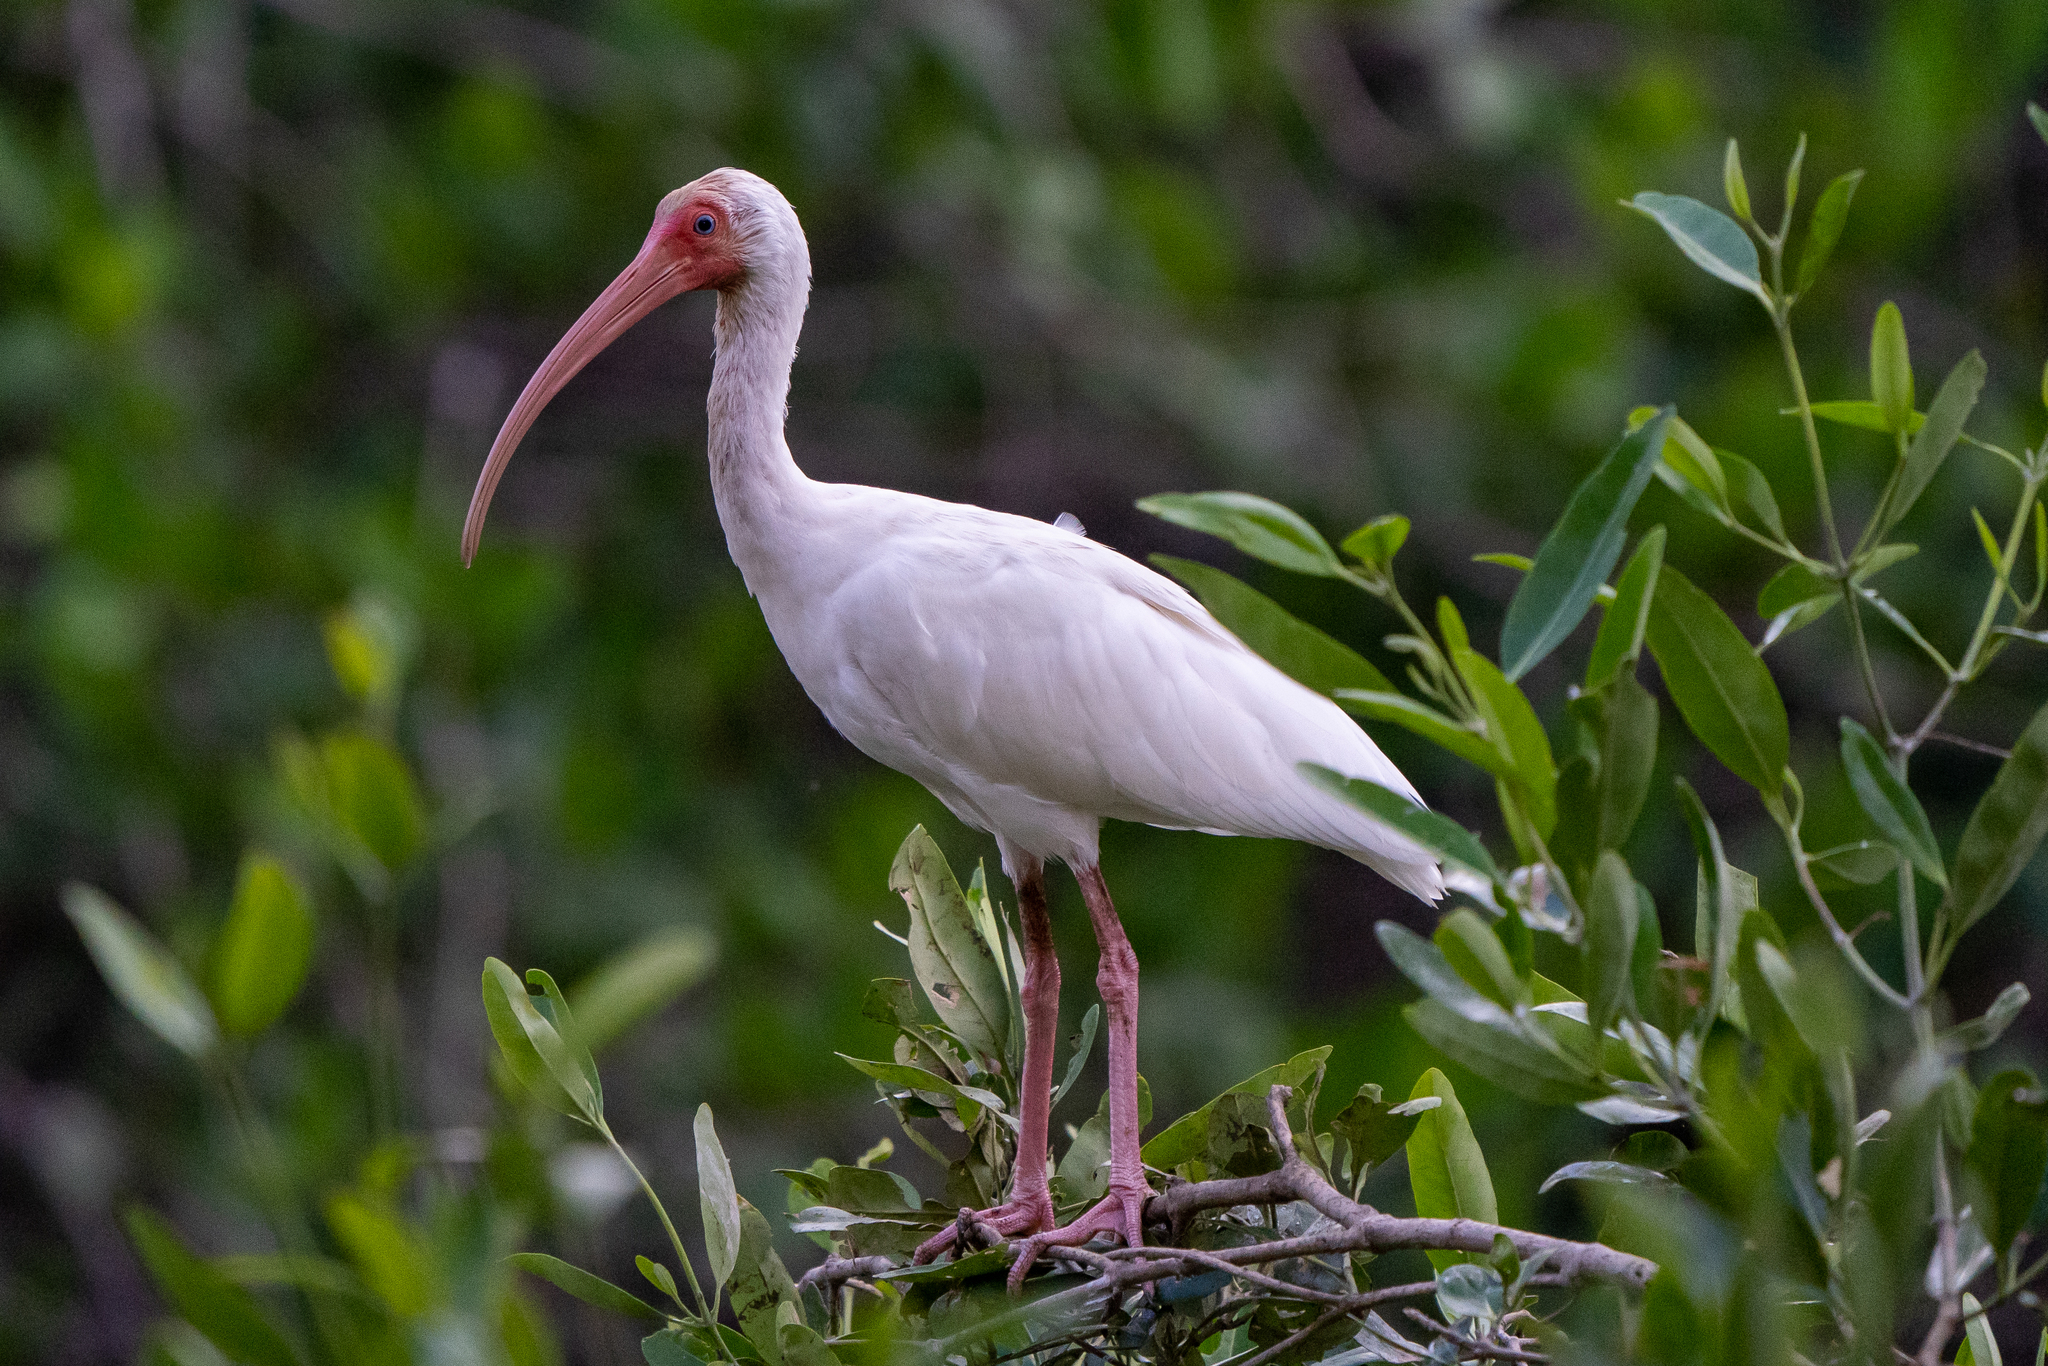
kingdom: Animalia
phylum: Chordata
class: Aves
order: Pelecaniformes
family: Threskiornithidae
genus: Eudocimus
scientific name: Eudocimus albus
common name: White ibis
